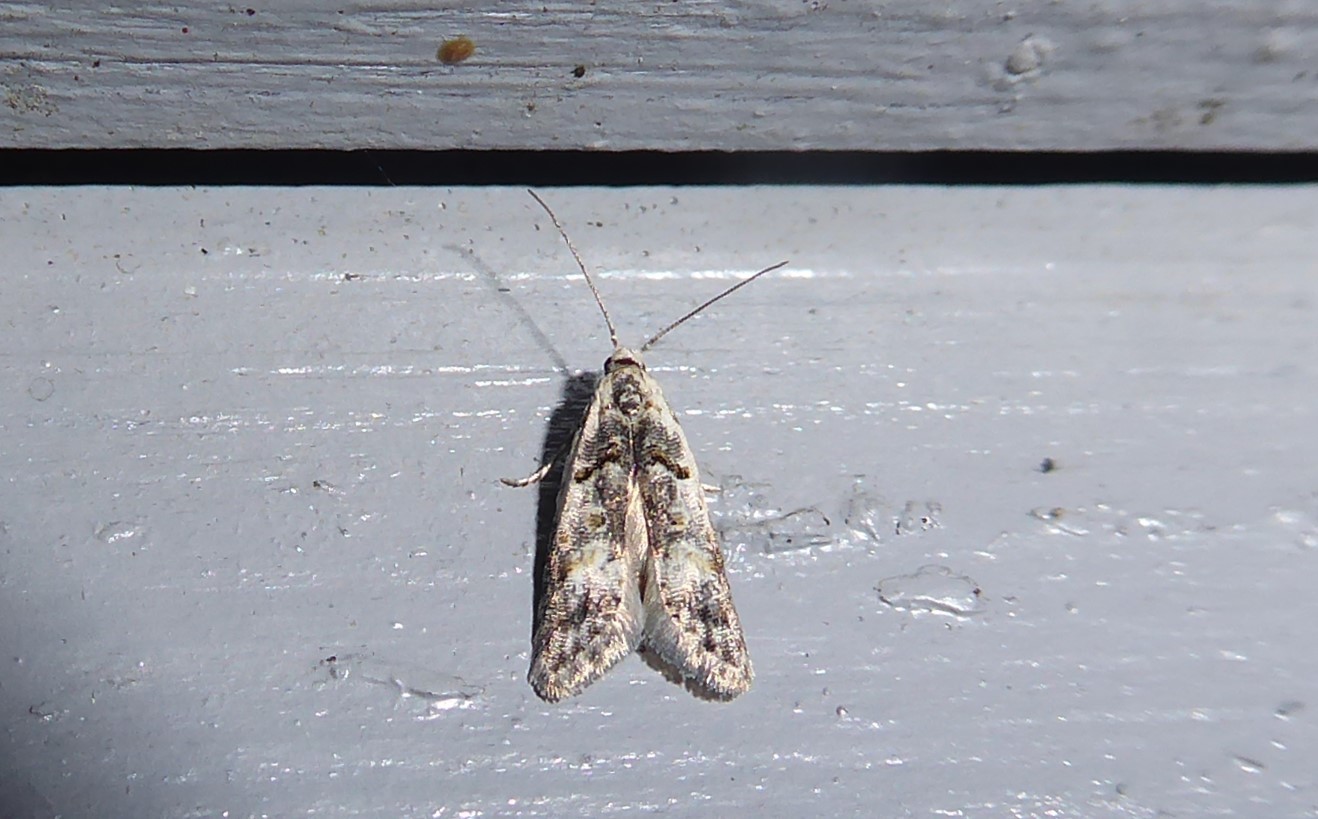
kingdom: Animalia
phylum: Arthropoda
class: Insecta
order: Lepidoptera
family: Carposinidae
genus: Carposina
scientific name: Carposina
